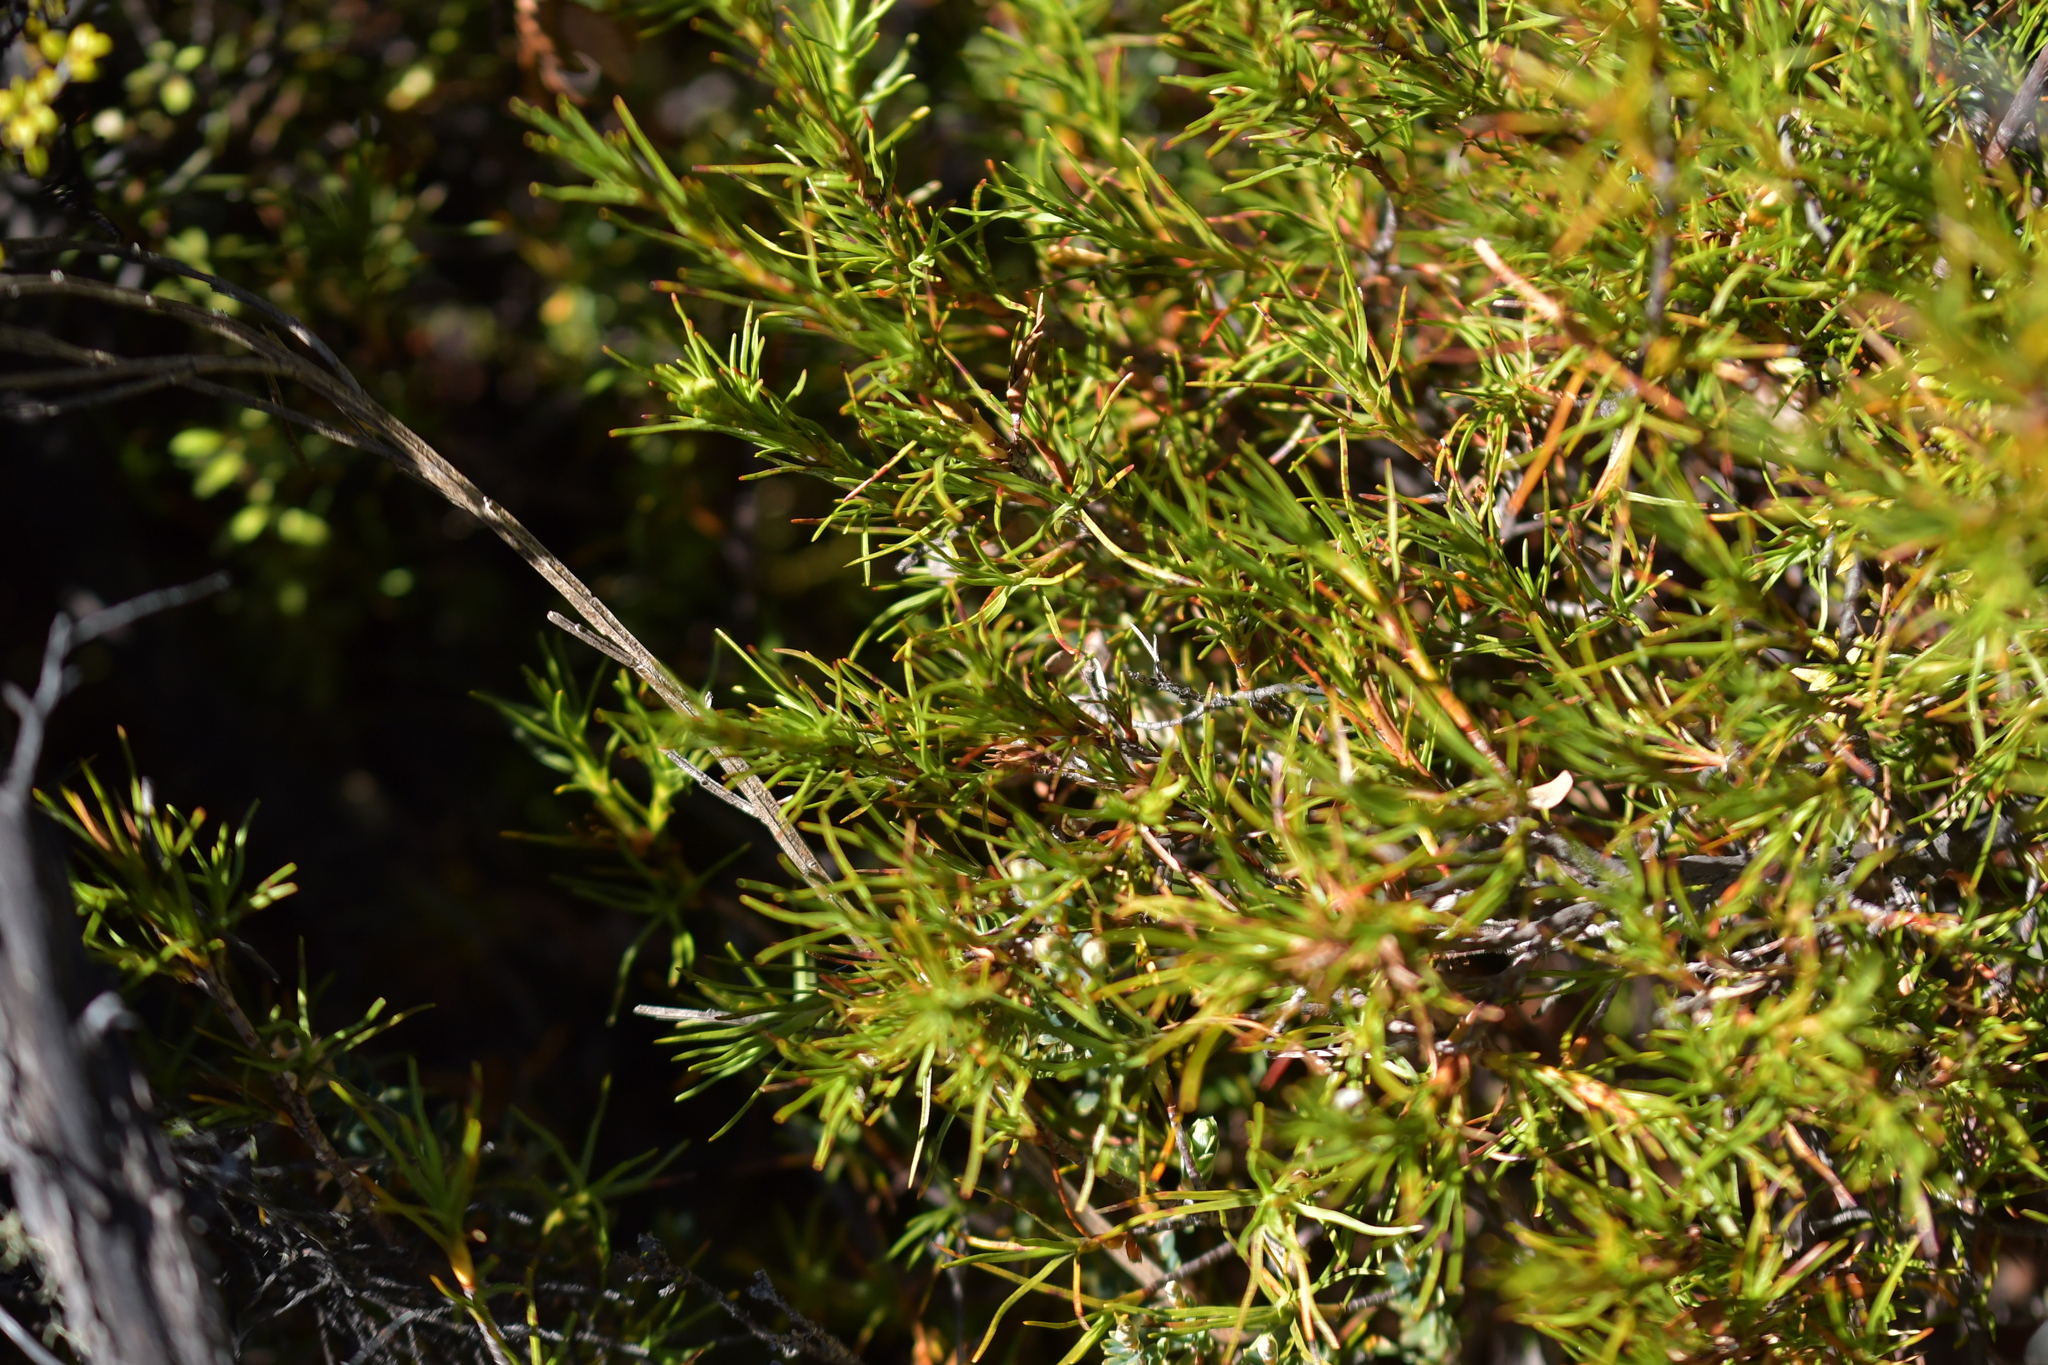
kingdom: Plantae
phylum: Tracheophyta
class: Magnoliopsida
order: Ericales
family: Ericaceae
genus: Dracophyllum
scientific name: Dracophyllum rosmarinifolium
